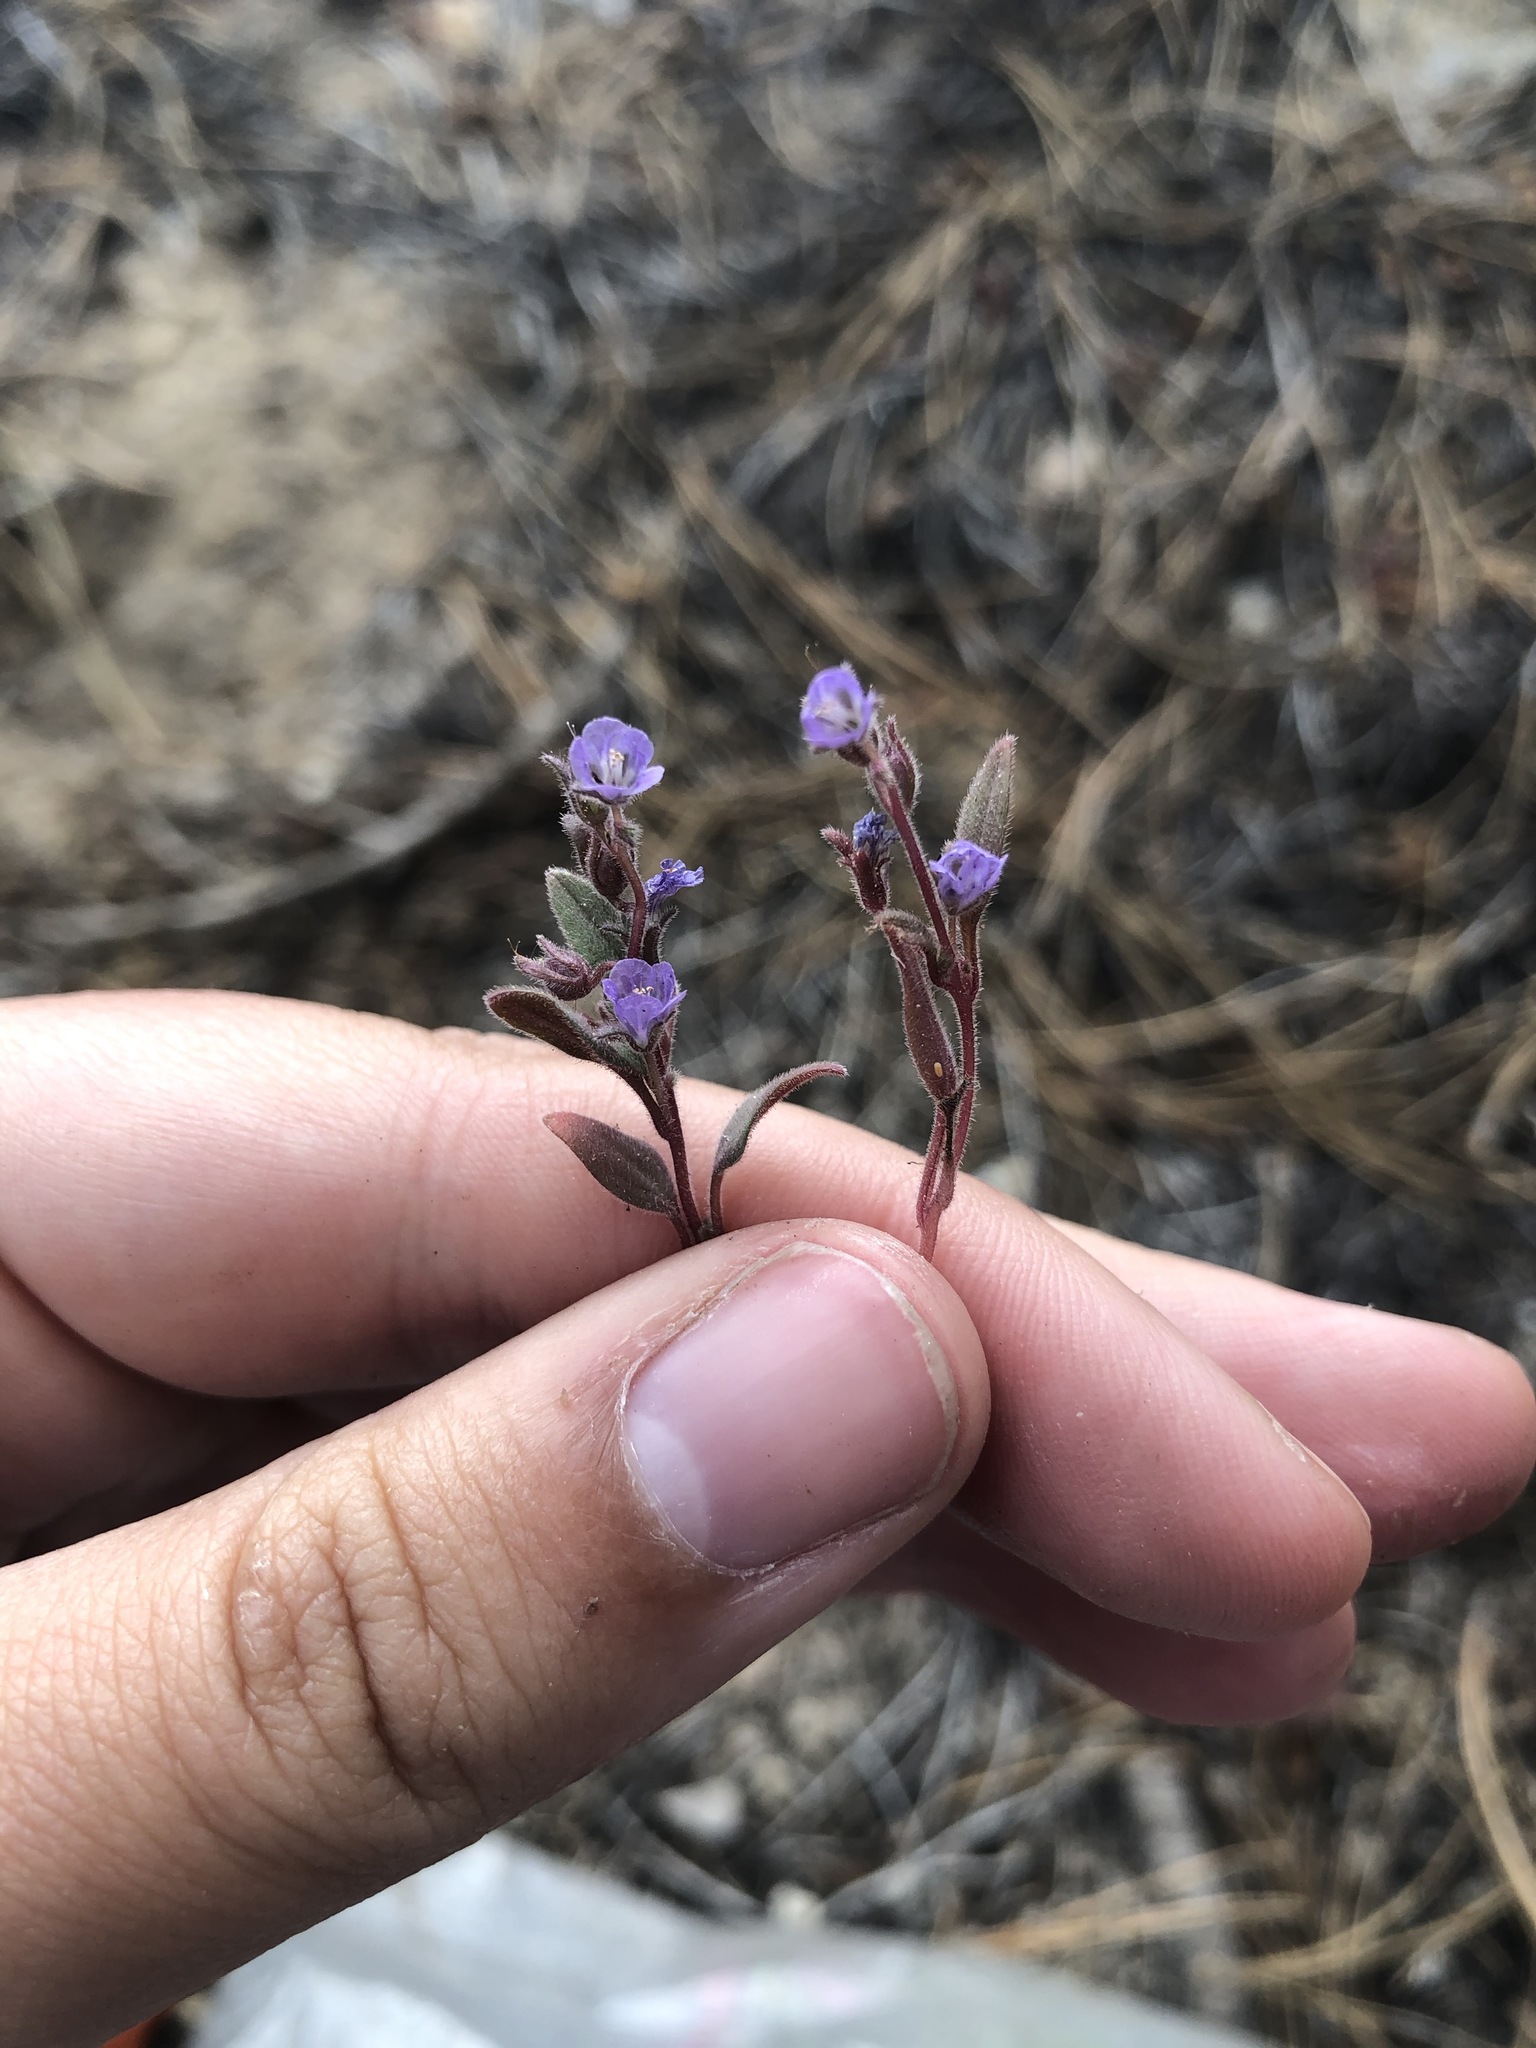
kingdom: Plantae
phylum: Tracheophyta
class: Magnoliopsida
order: Boraginales
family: Hydrophyllaceae
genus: Phacelia
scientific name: Phacelia austromontana
